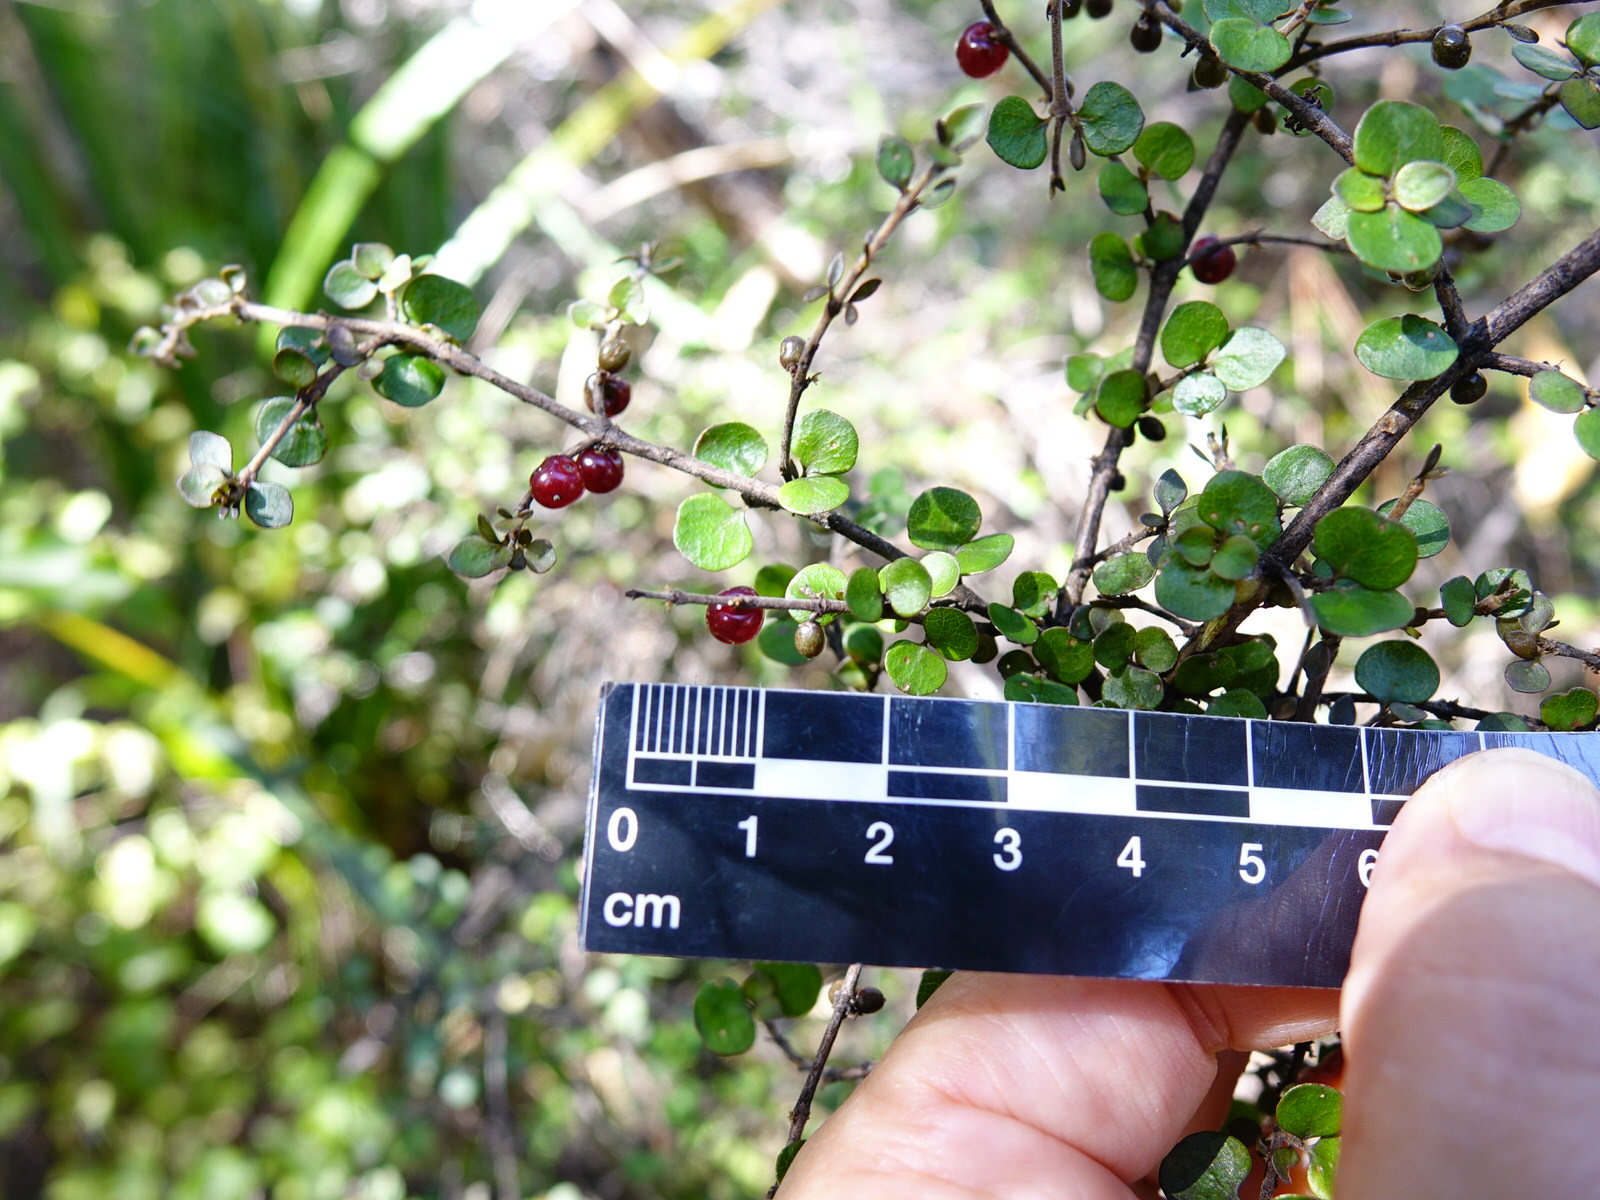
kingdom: Plantae
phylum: Tracheophyta
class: Magnoliopsida
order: Gentianales
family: Rubiaceae
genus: Coprosma
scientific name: Coprosma rhamnoides
